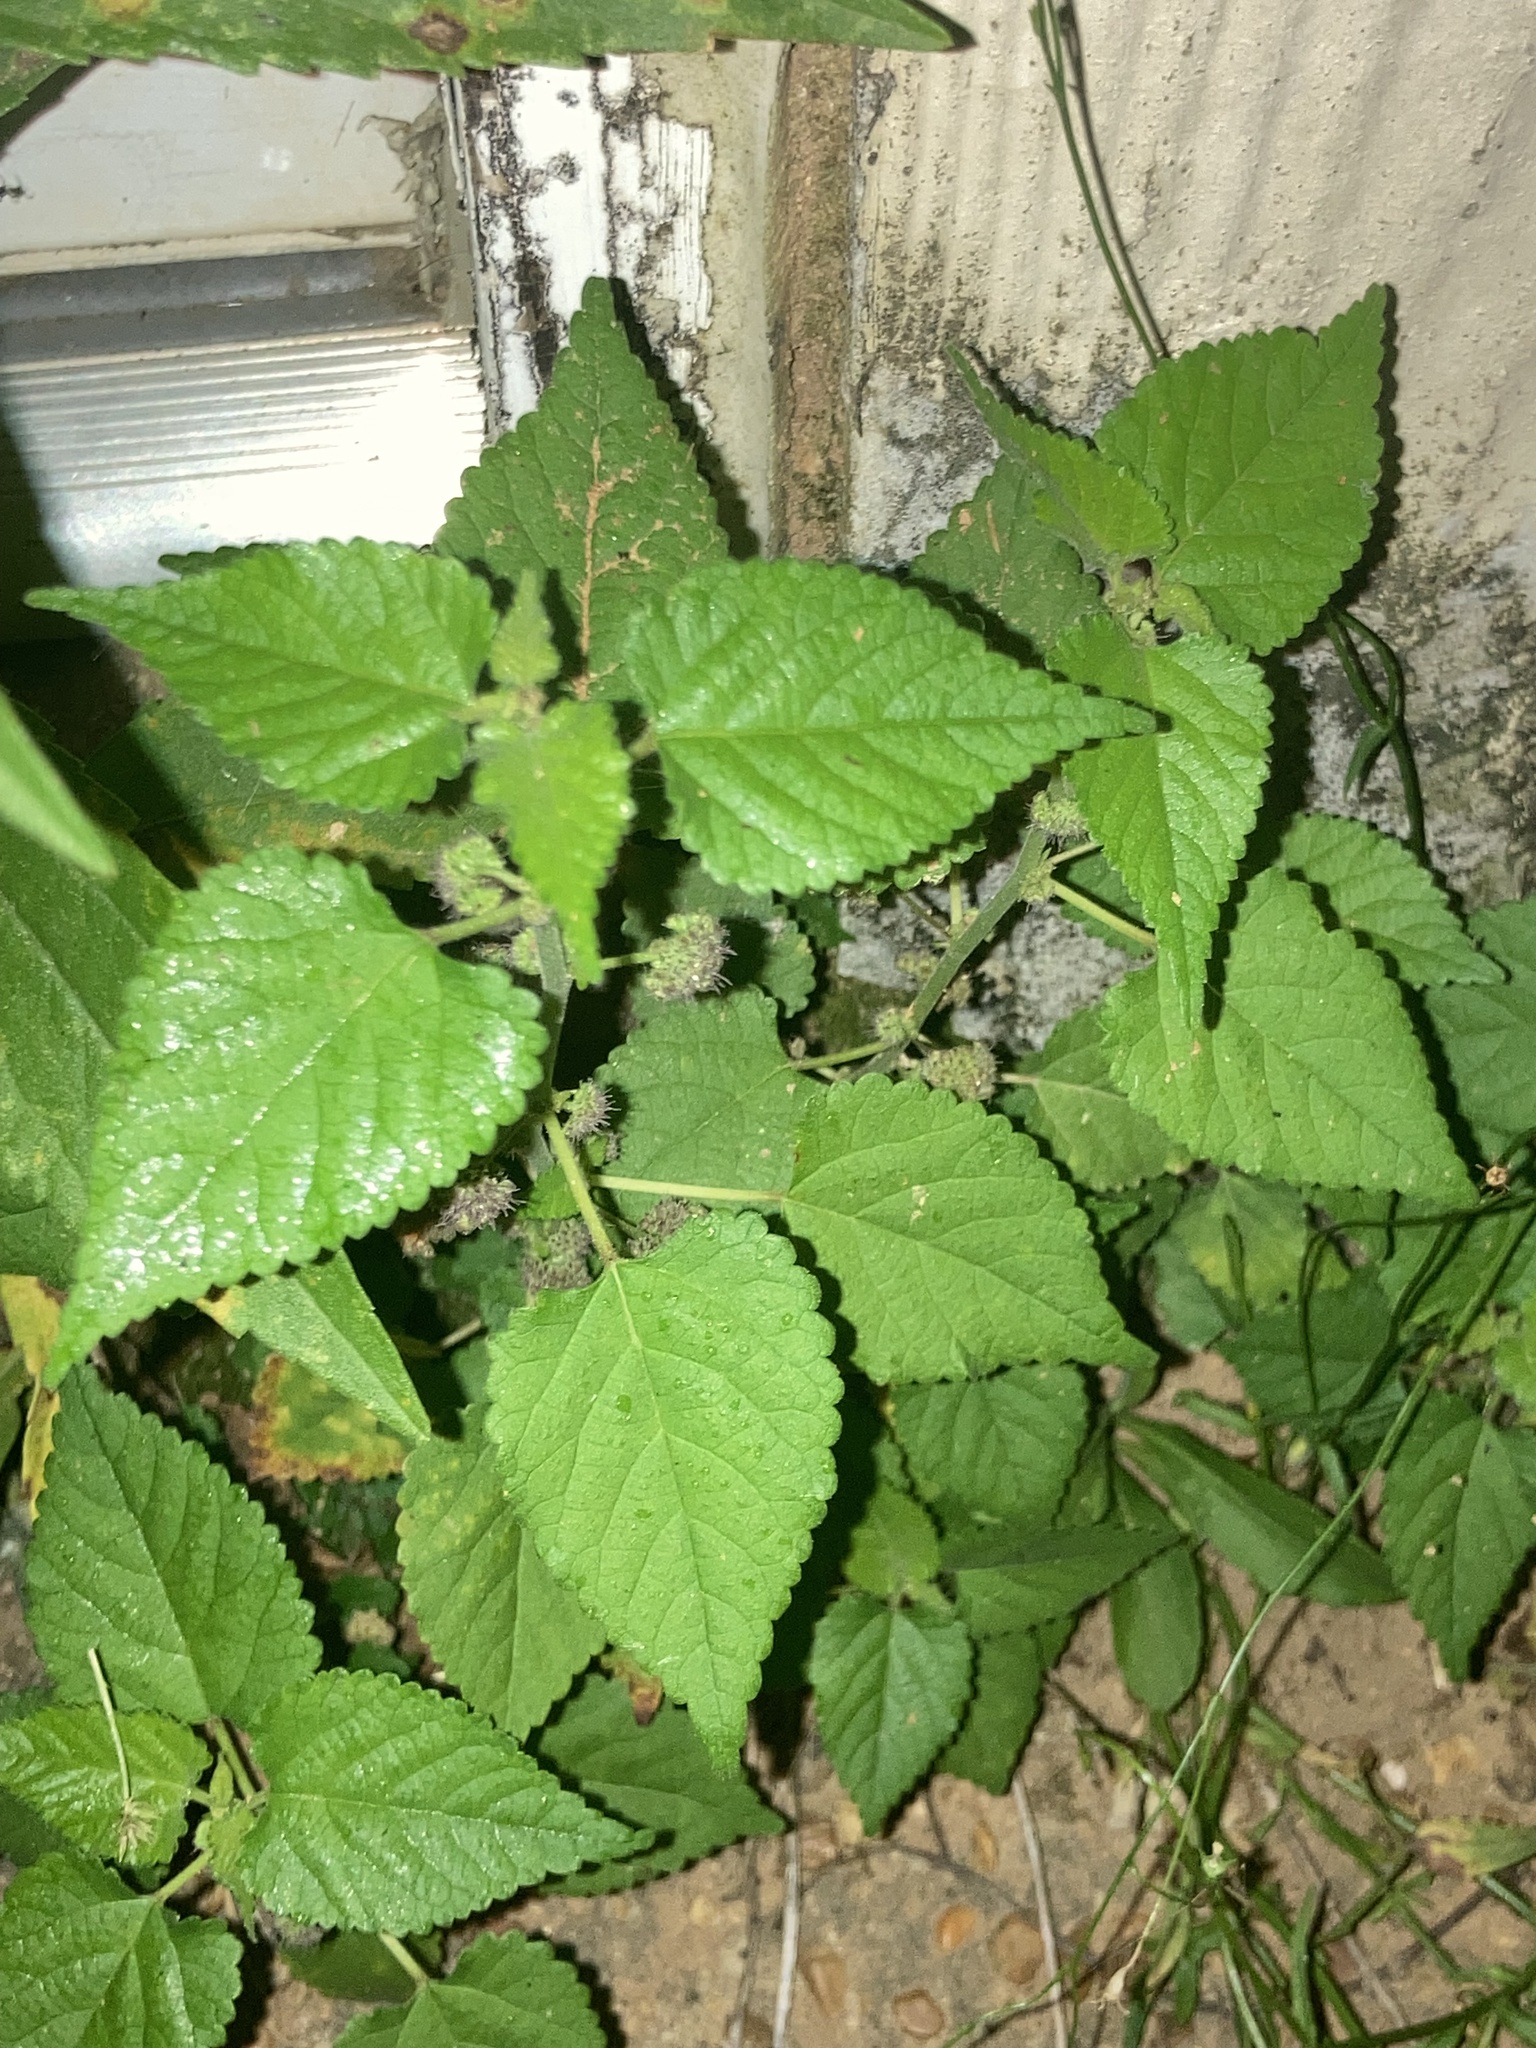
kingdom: Plantae
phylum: Tracheophyta
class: Magnoliopsida
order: Rosales
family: Moraceae
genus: Fatoua
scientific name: Fatoua villosa
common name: Hairy crabweed
